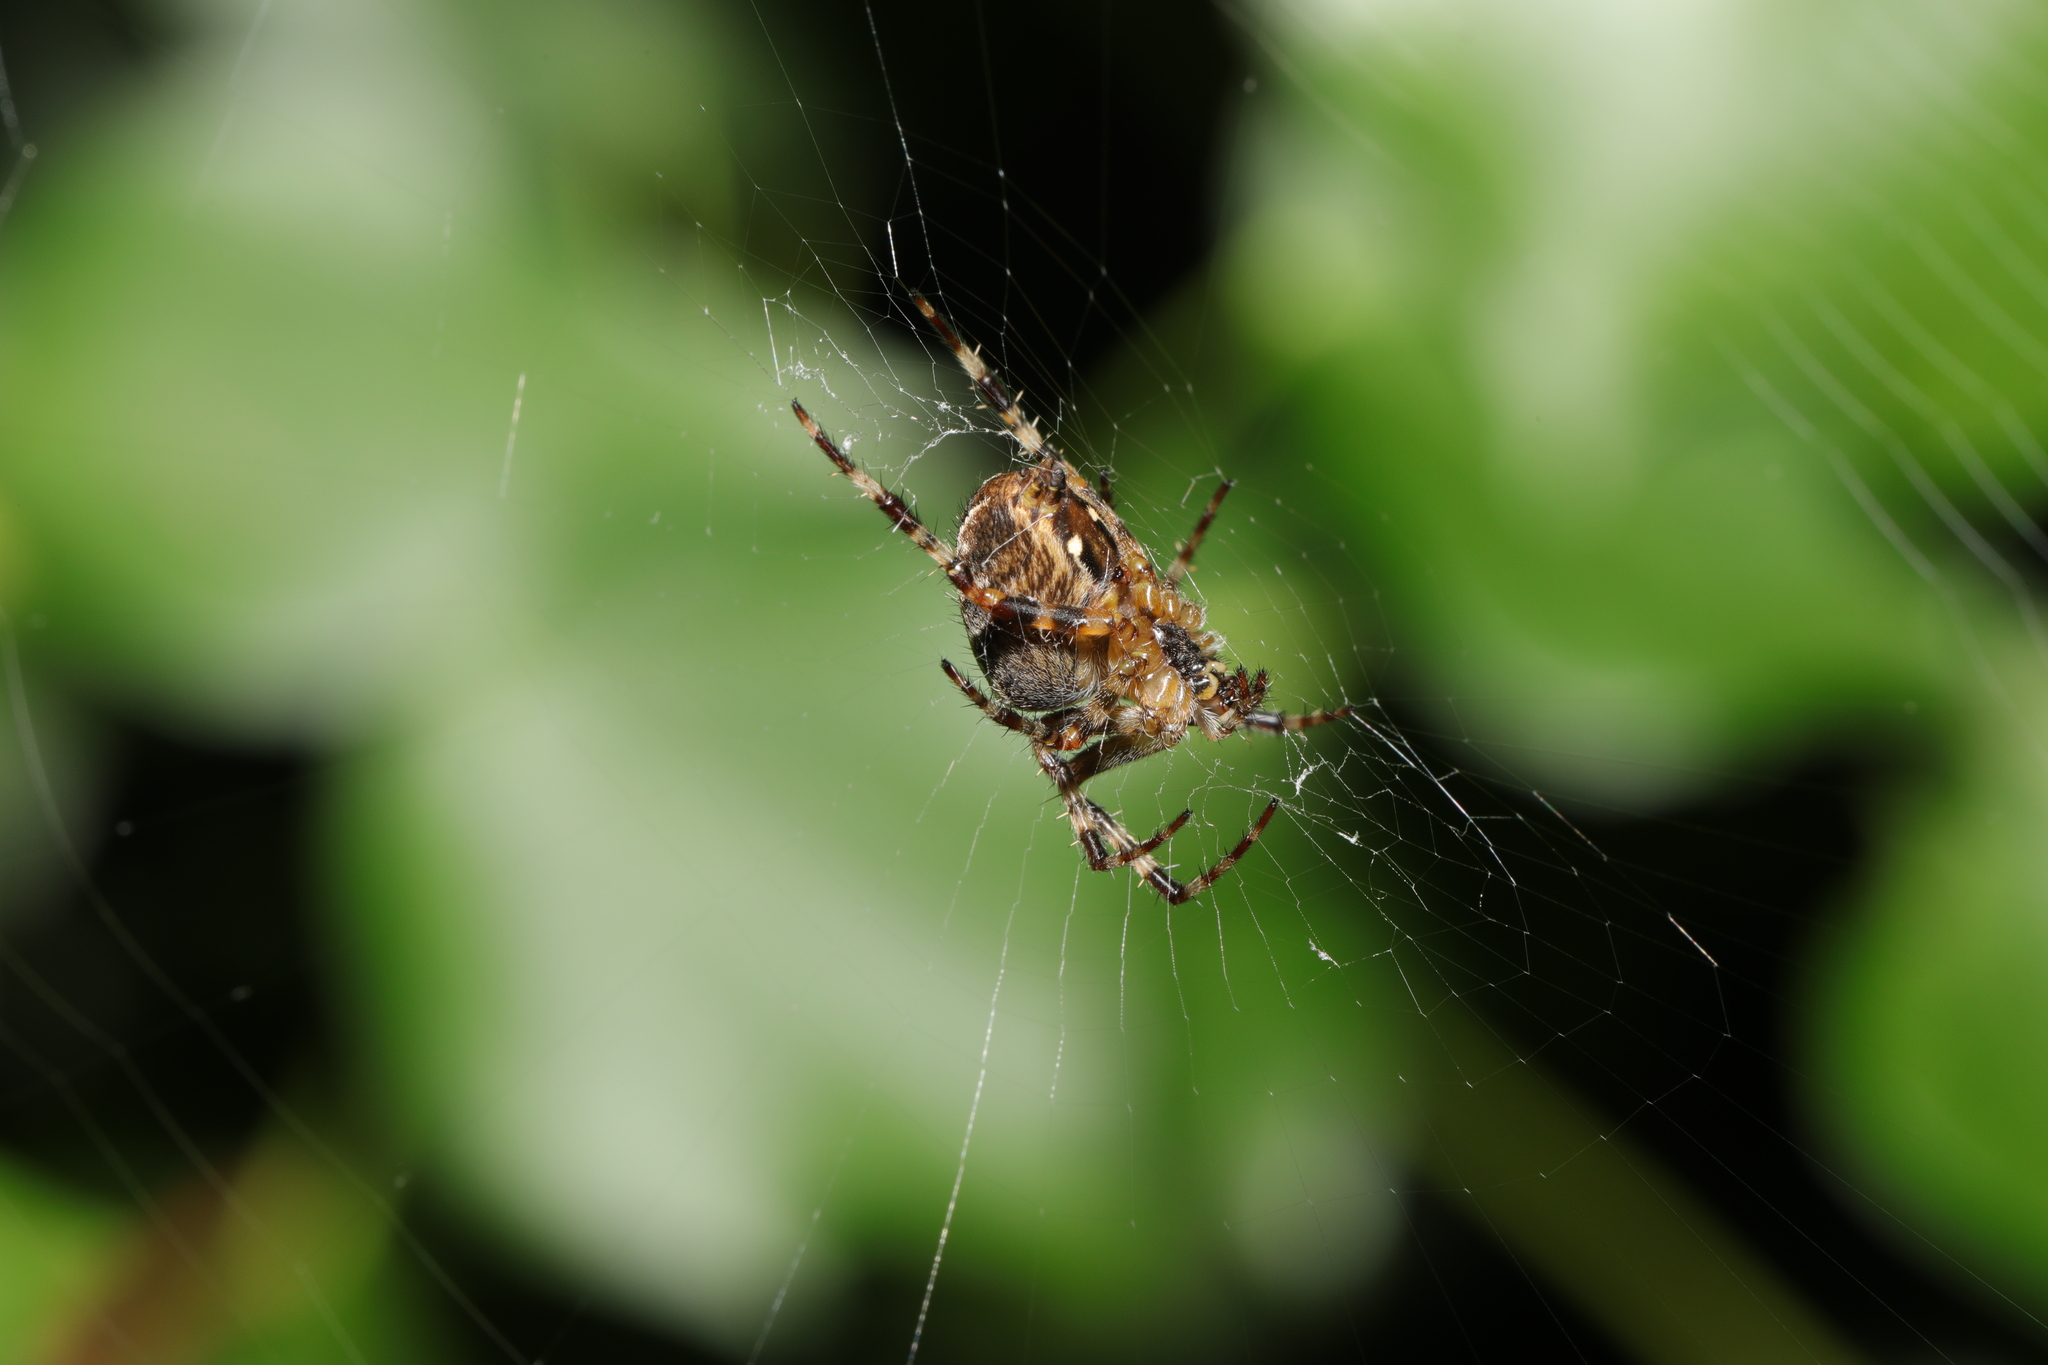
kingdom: Animalia
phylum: Arthropoda
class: Arachnida
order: Araneae
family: Araneidae
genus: Araneus
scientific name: Araneus diadematus
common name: Cross orbweaver
